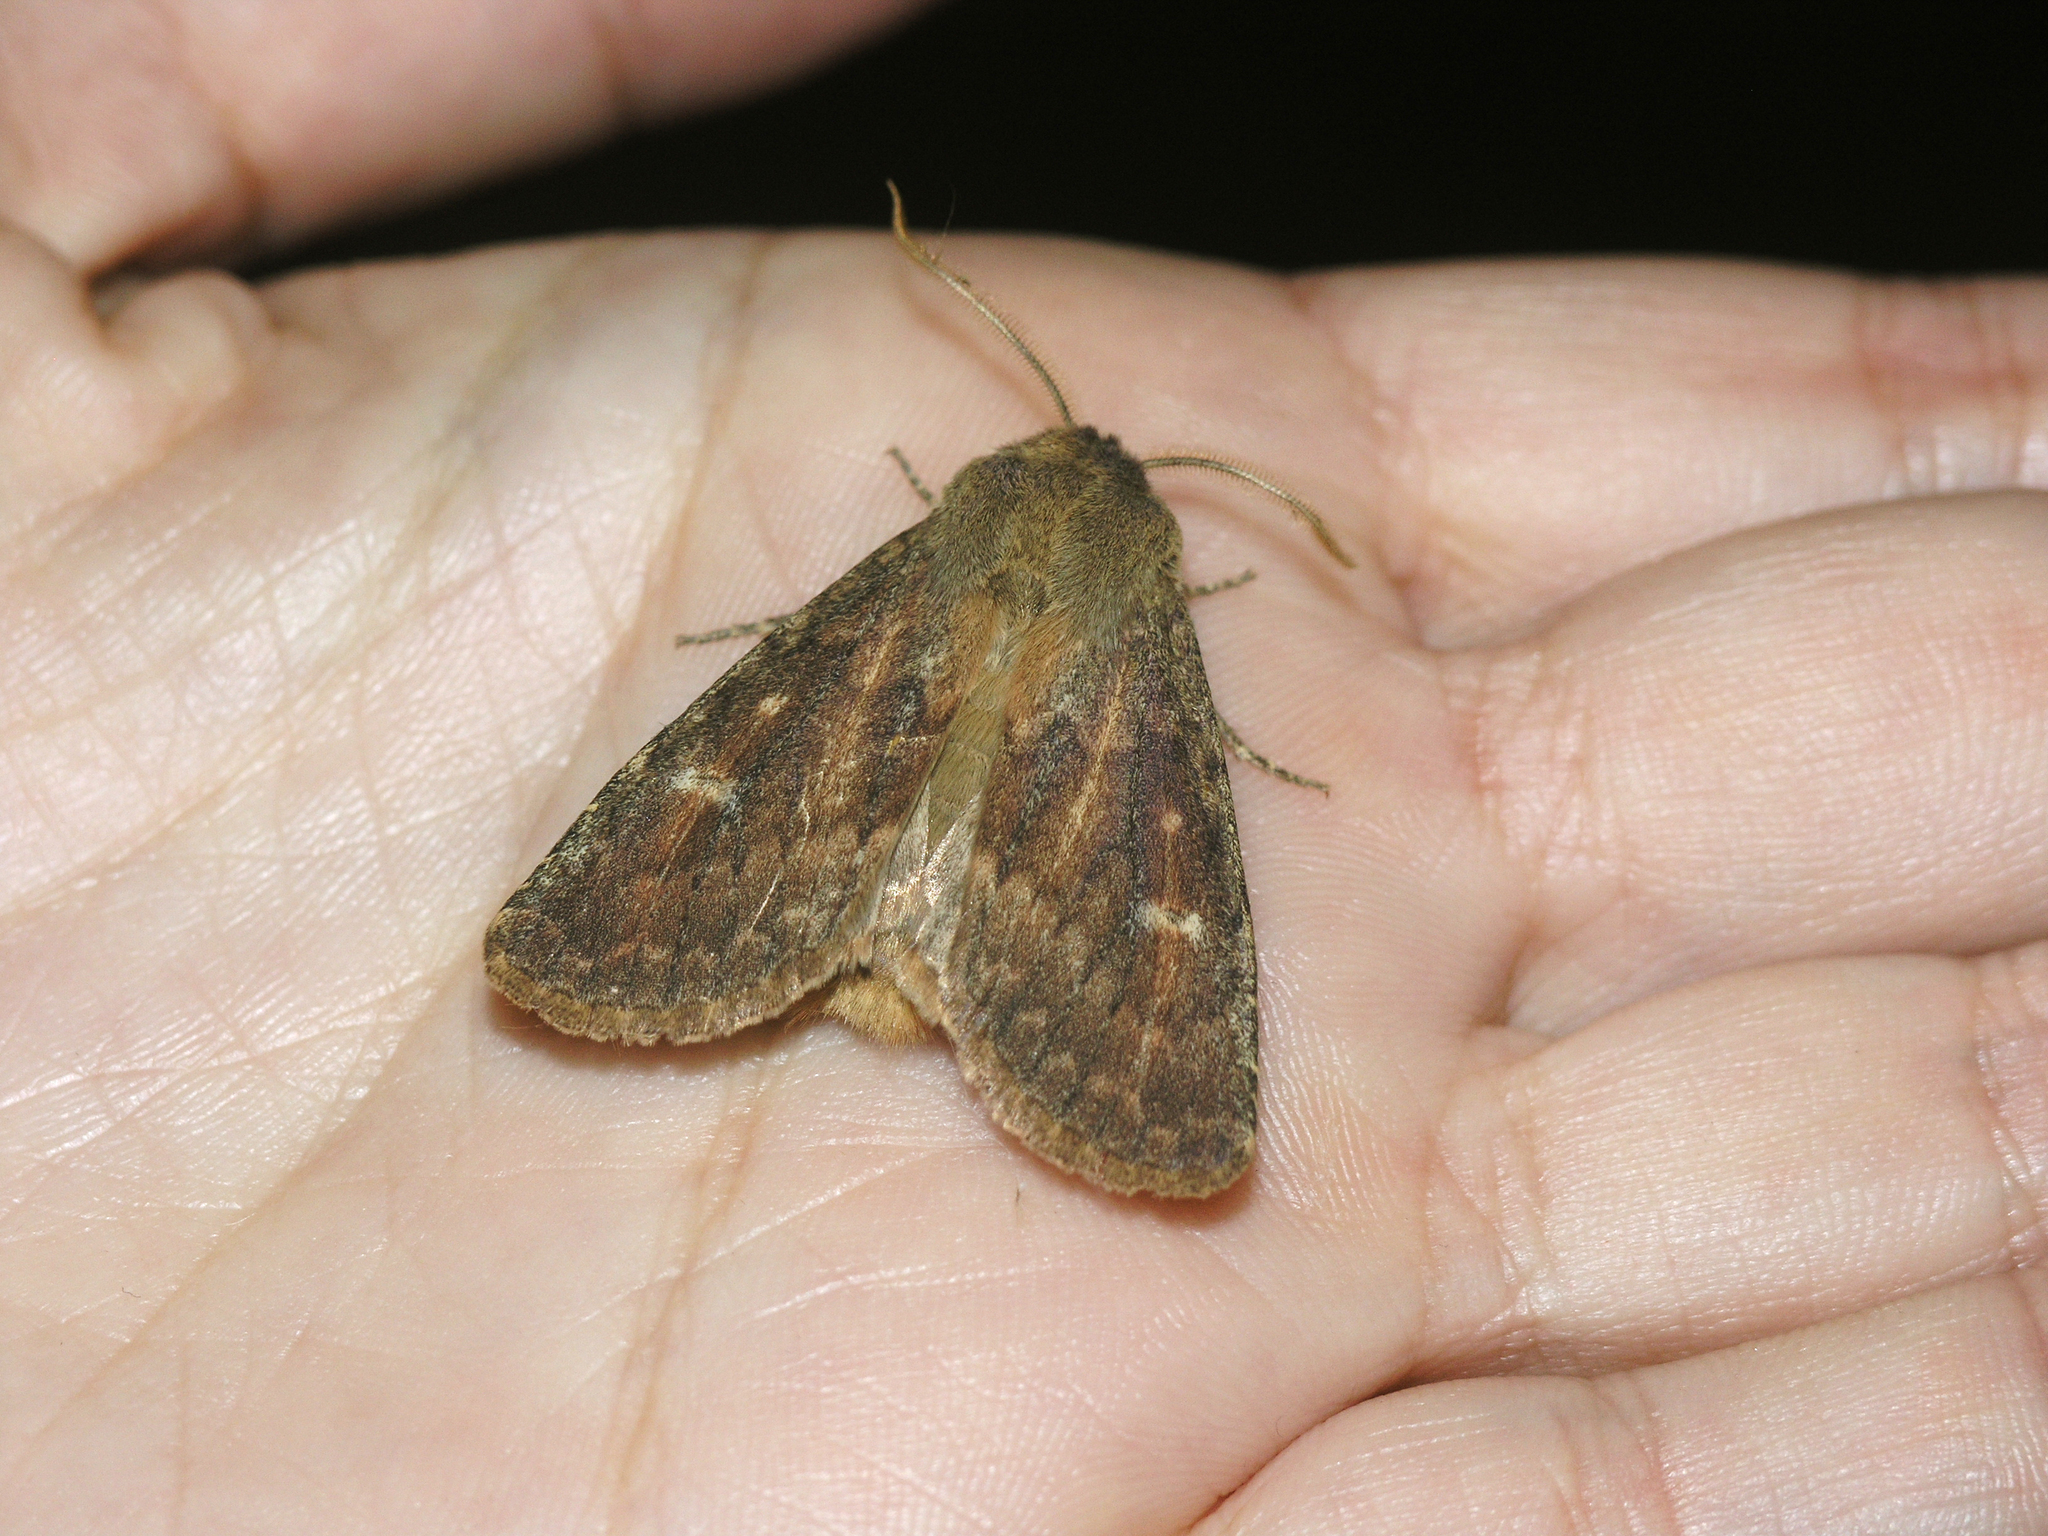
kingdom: Animalia
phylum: Arthropoda
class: Insecta
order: Lepidoptera
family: Noctuidae
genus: Dasypolia
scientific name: Dasypolia templi
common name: Brindled ochre
